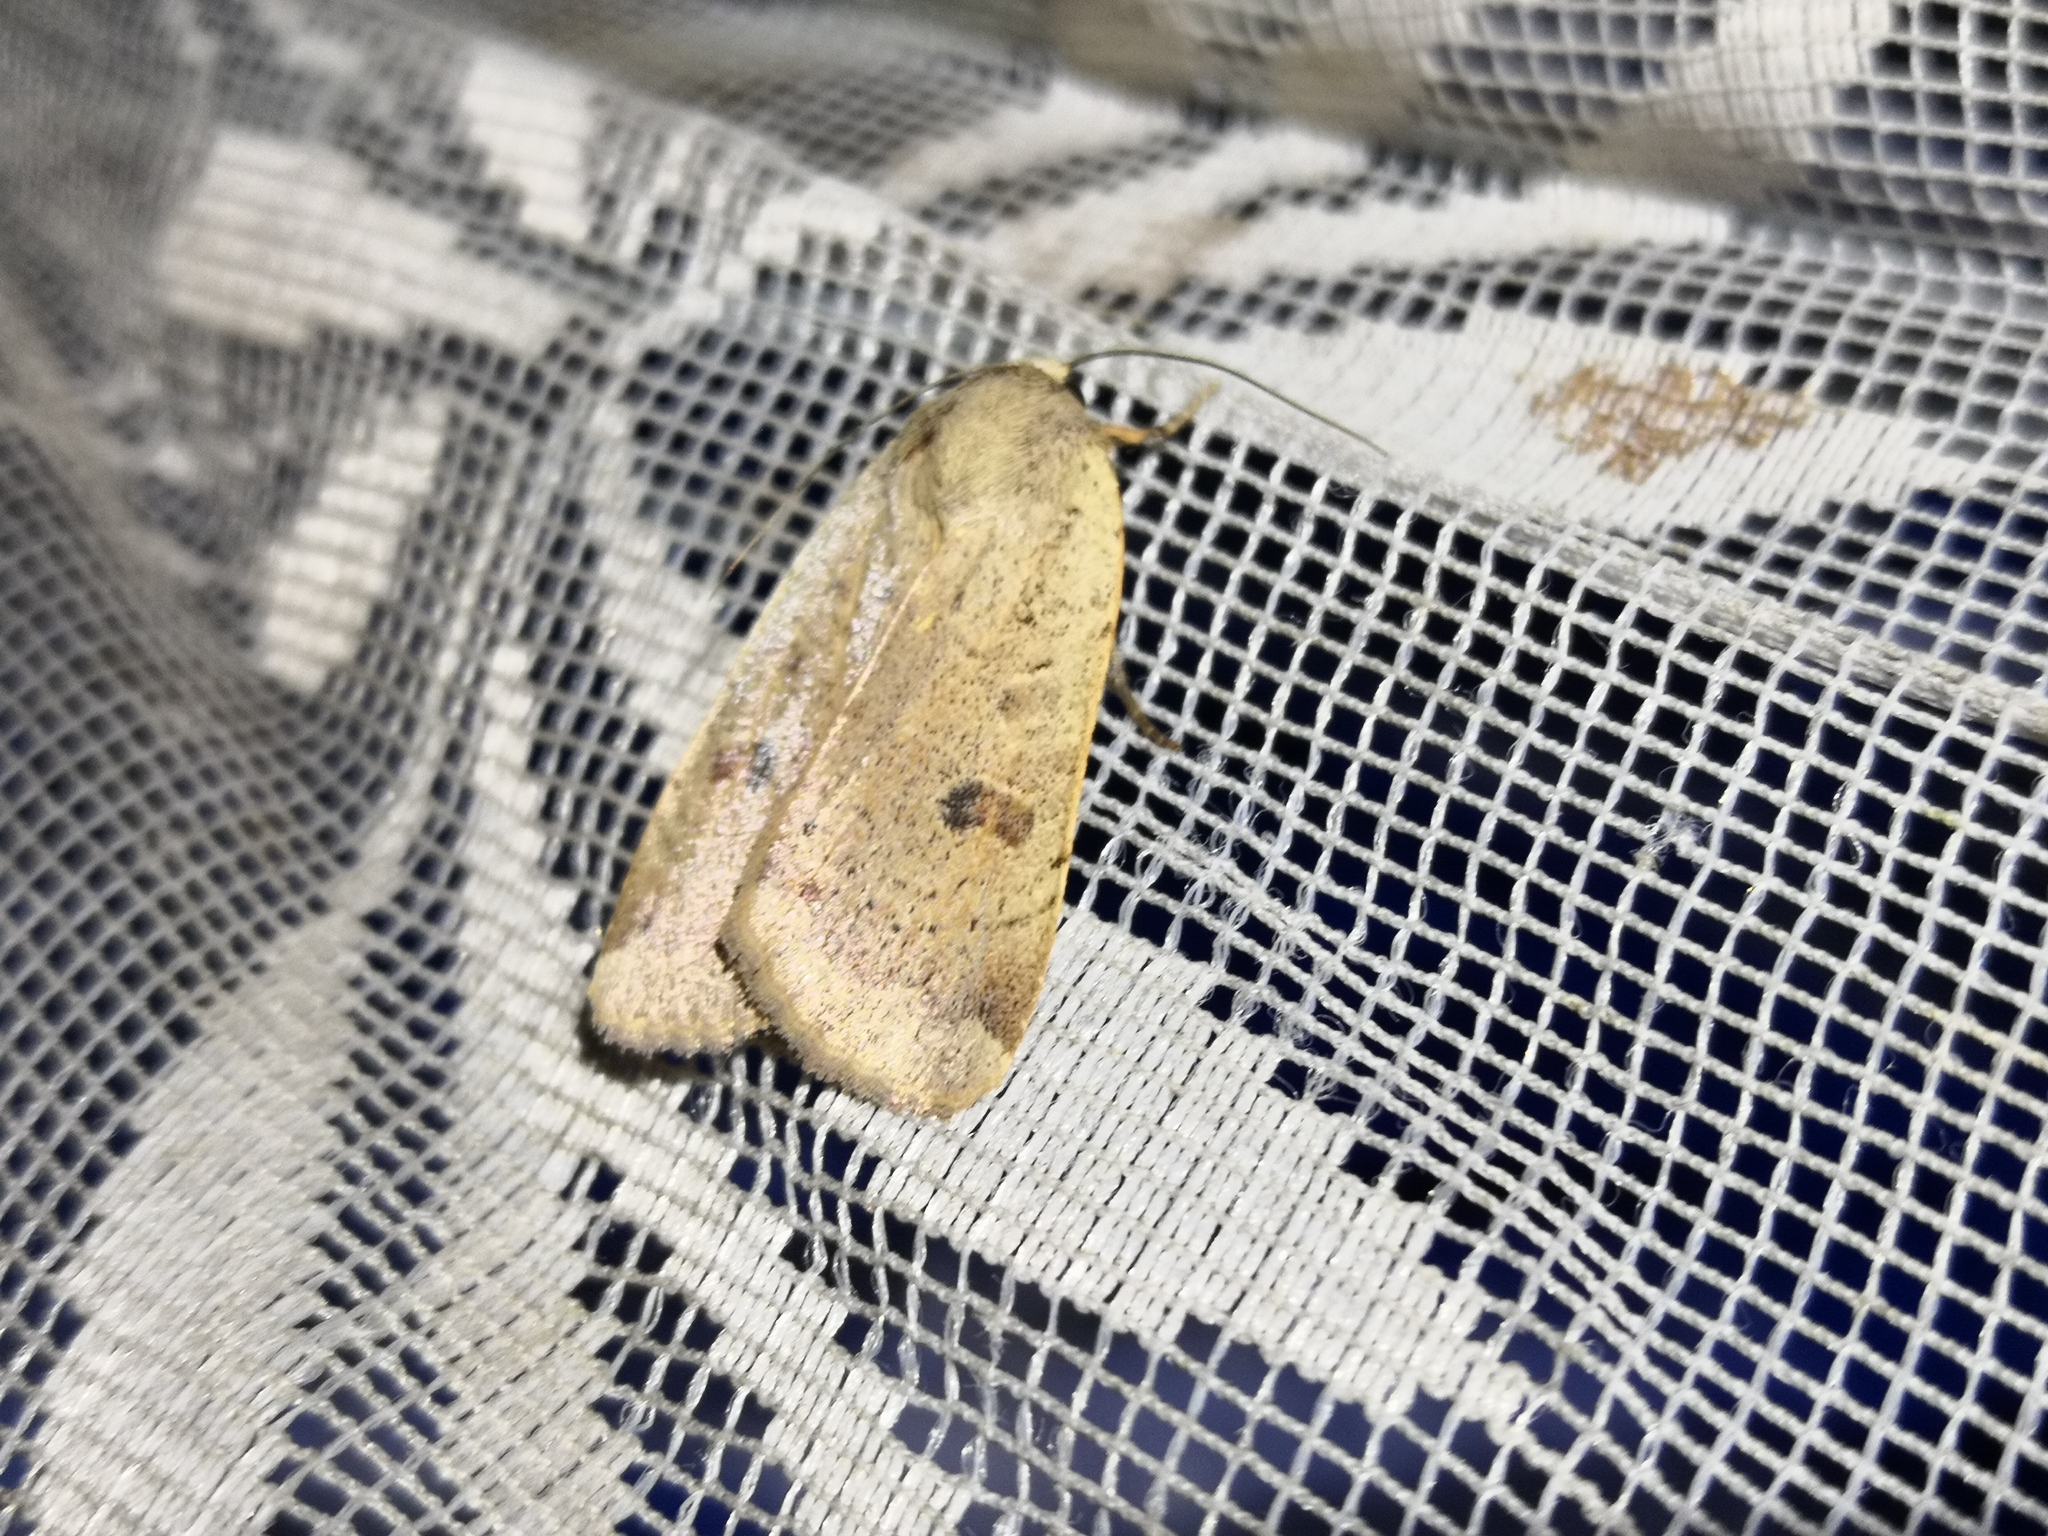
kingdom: Animalia
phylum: Arthropoda
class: Insecta
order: Lepidoptera
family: Noctuidae
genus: Noctua
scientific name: Noctua comes
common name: Lesser yellow underwing
